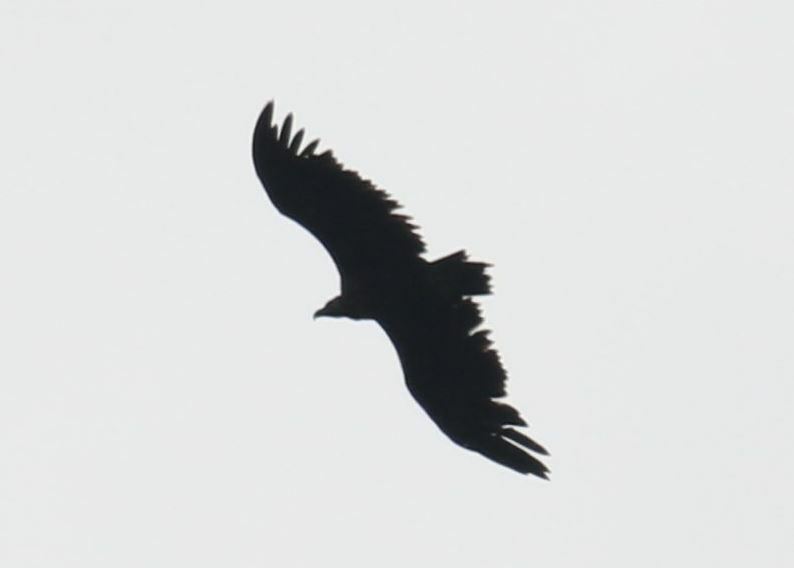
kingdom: Animalia
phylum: Chordata
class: Aves
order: Accipitriformes
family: Accipitridae
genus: Aegypius
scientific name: Aegypius monachus
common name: Cinereous vulture
